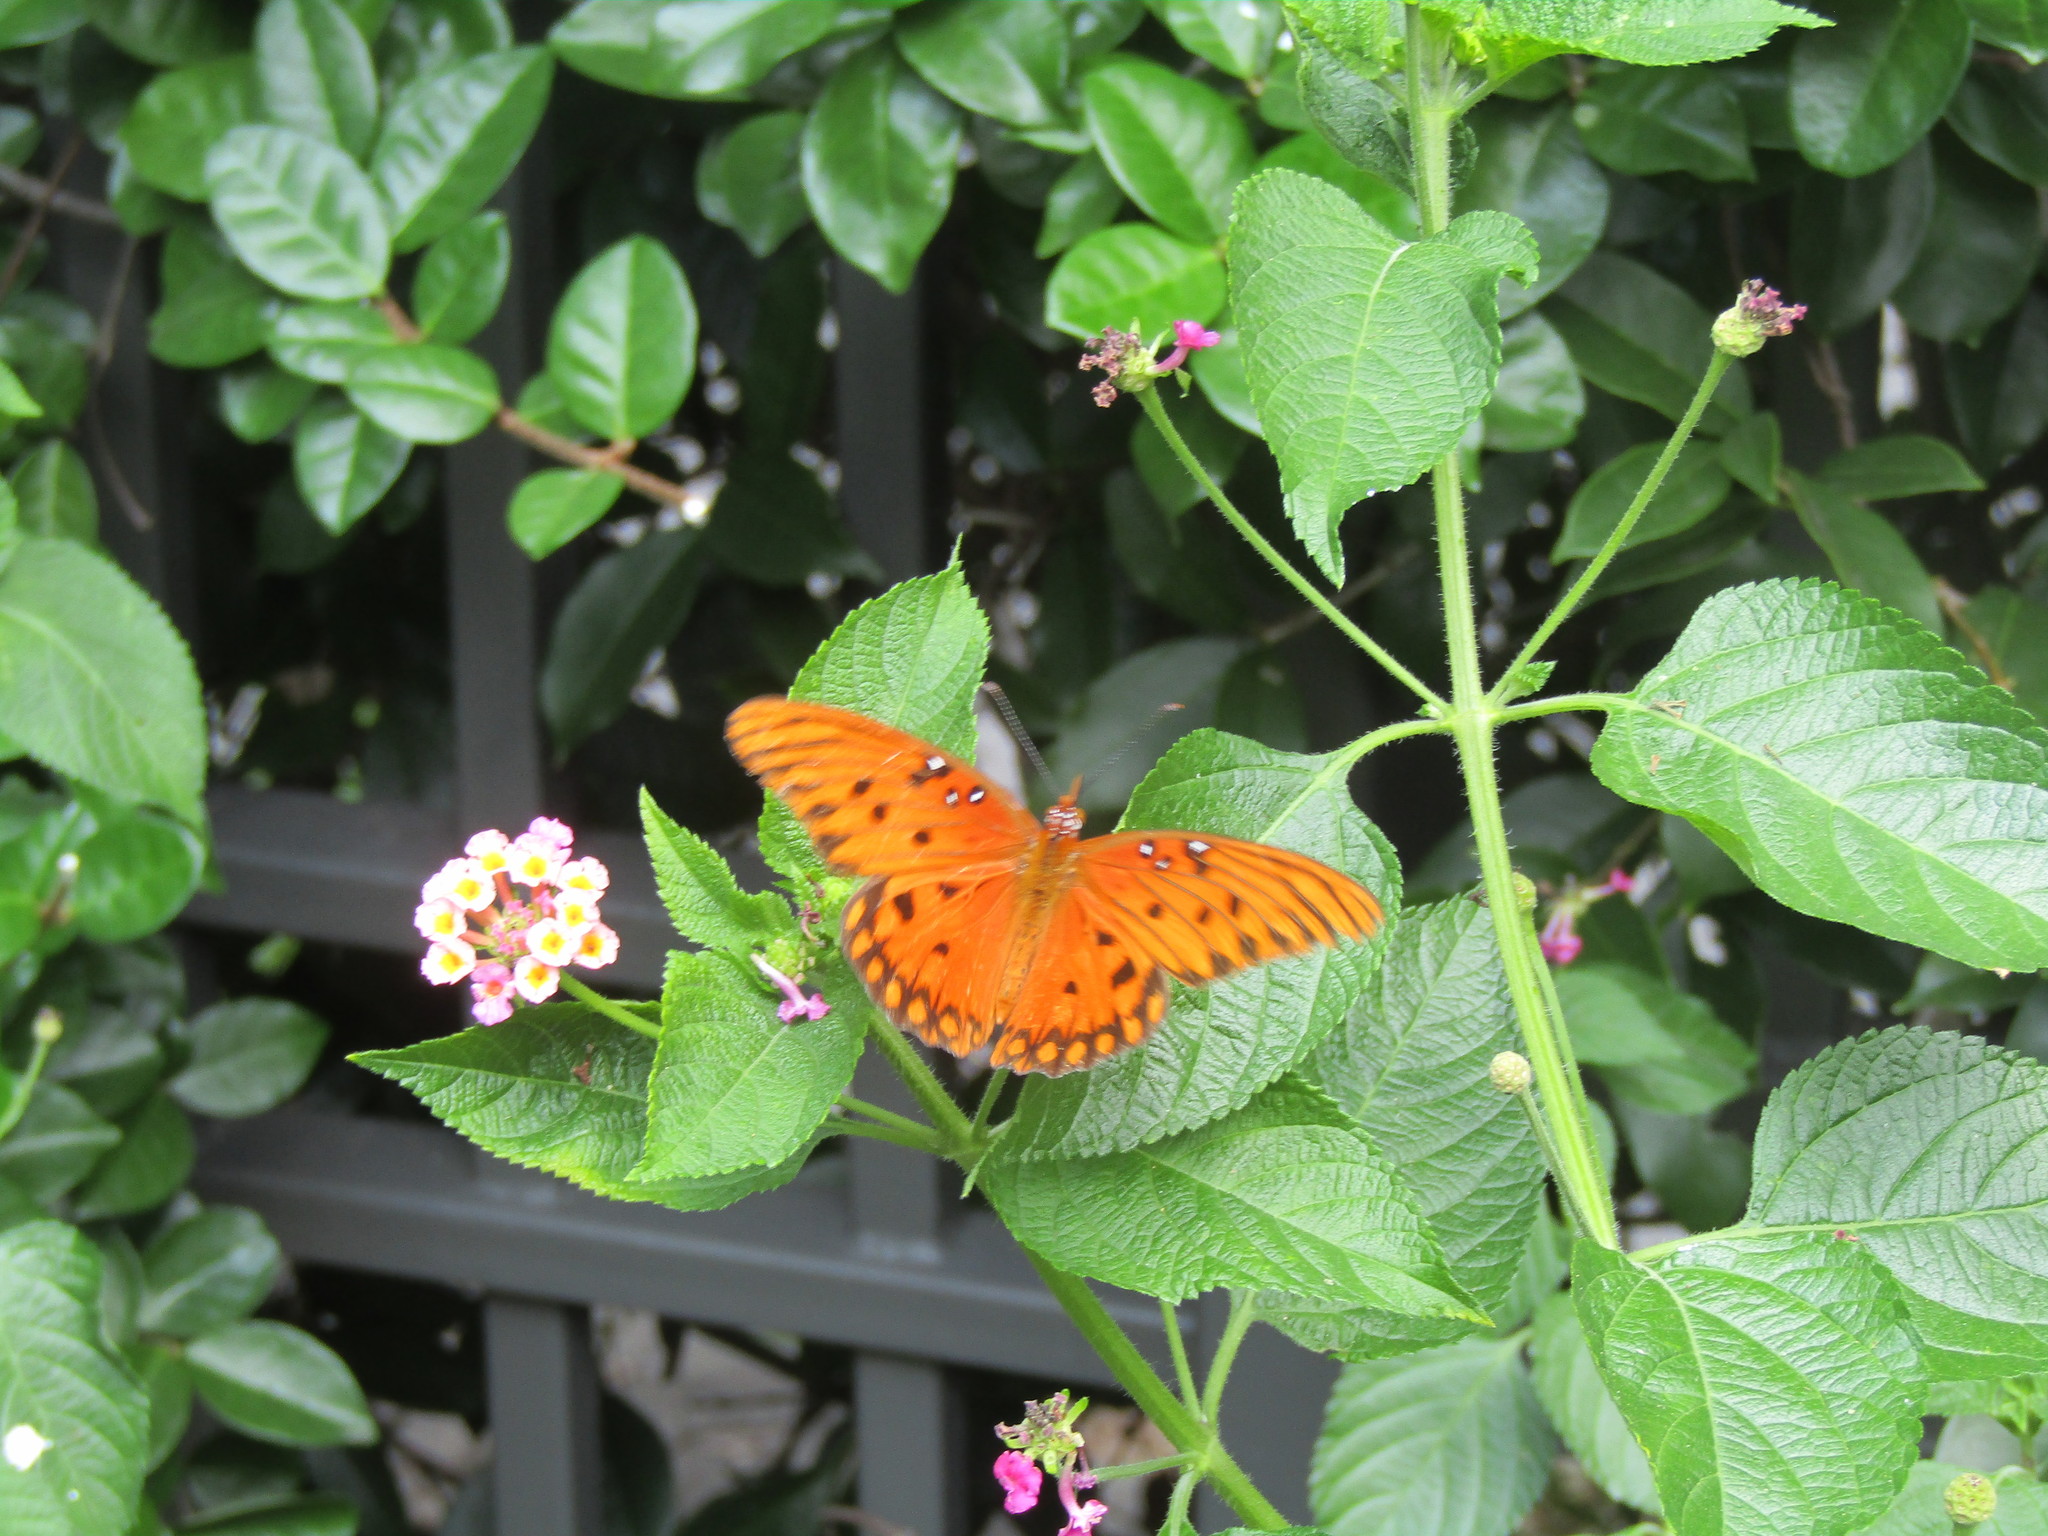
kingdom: Animalia
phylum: Arthropoda
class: Insecta
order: Lepidoptera
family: Nymphalidae
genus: Dione
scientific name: Dione vanillae
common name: Gulf fritillary
